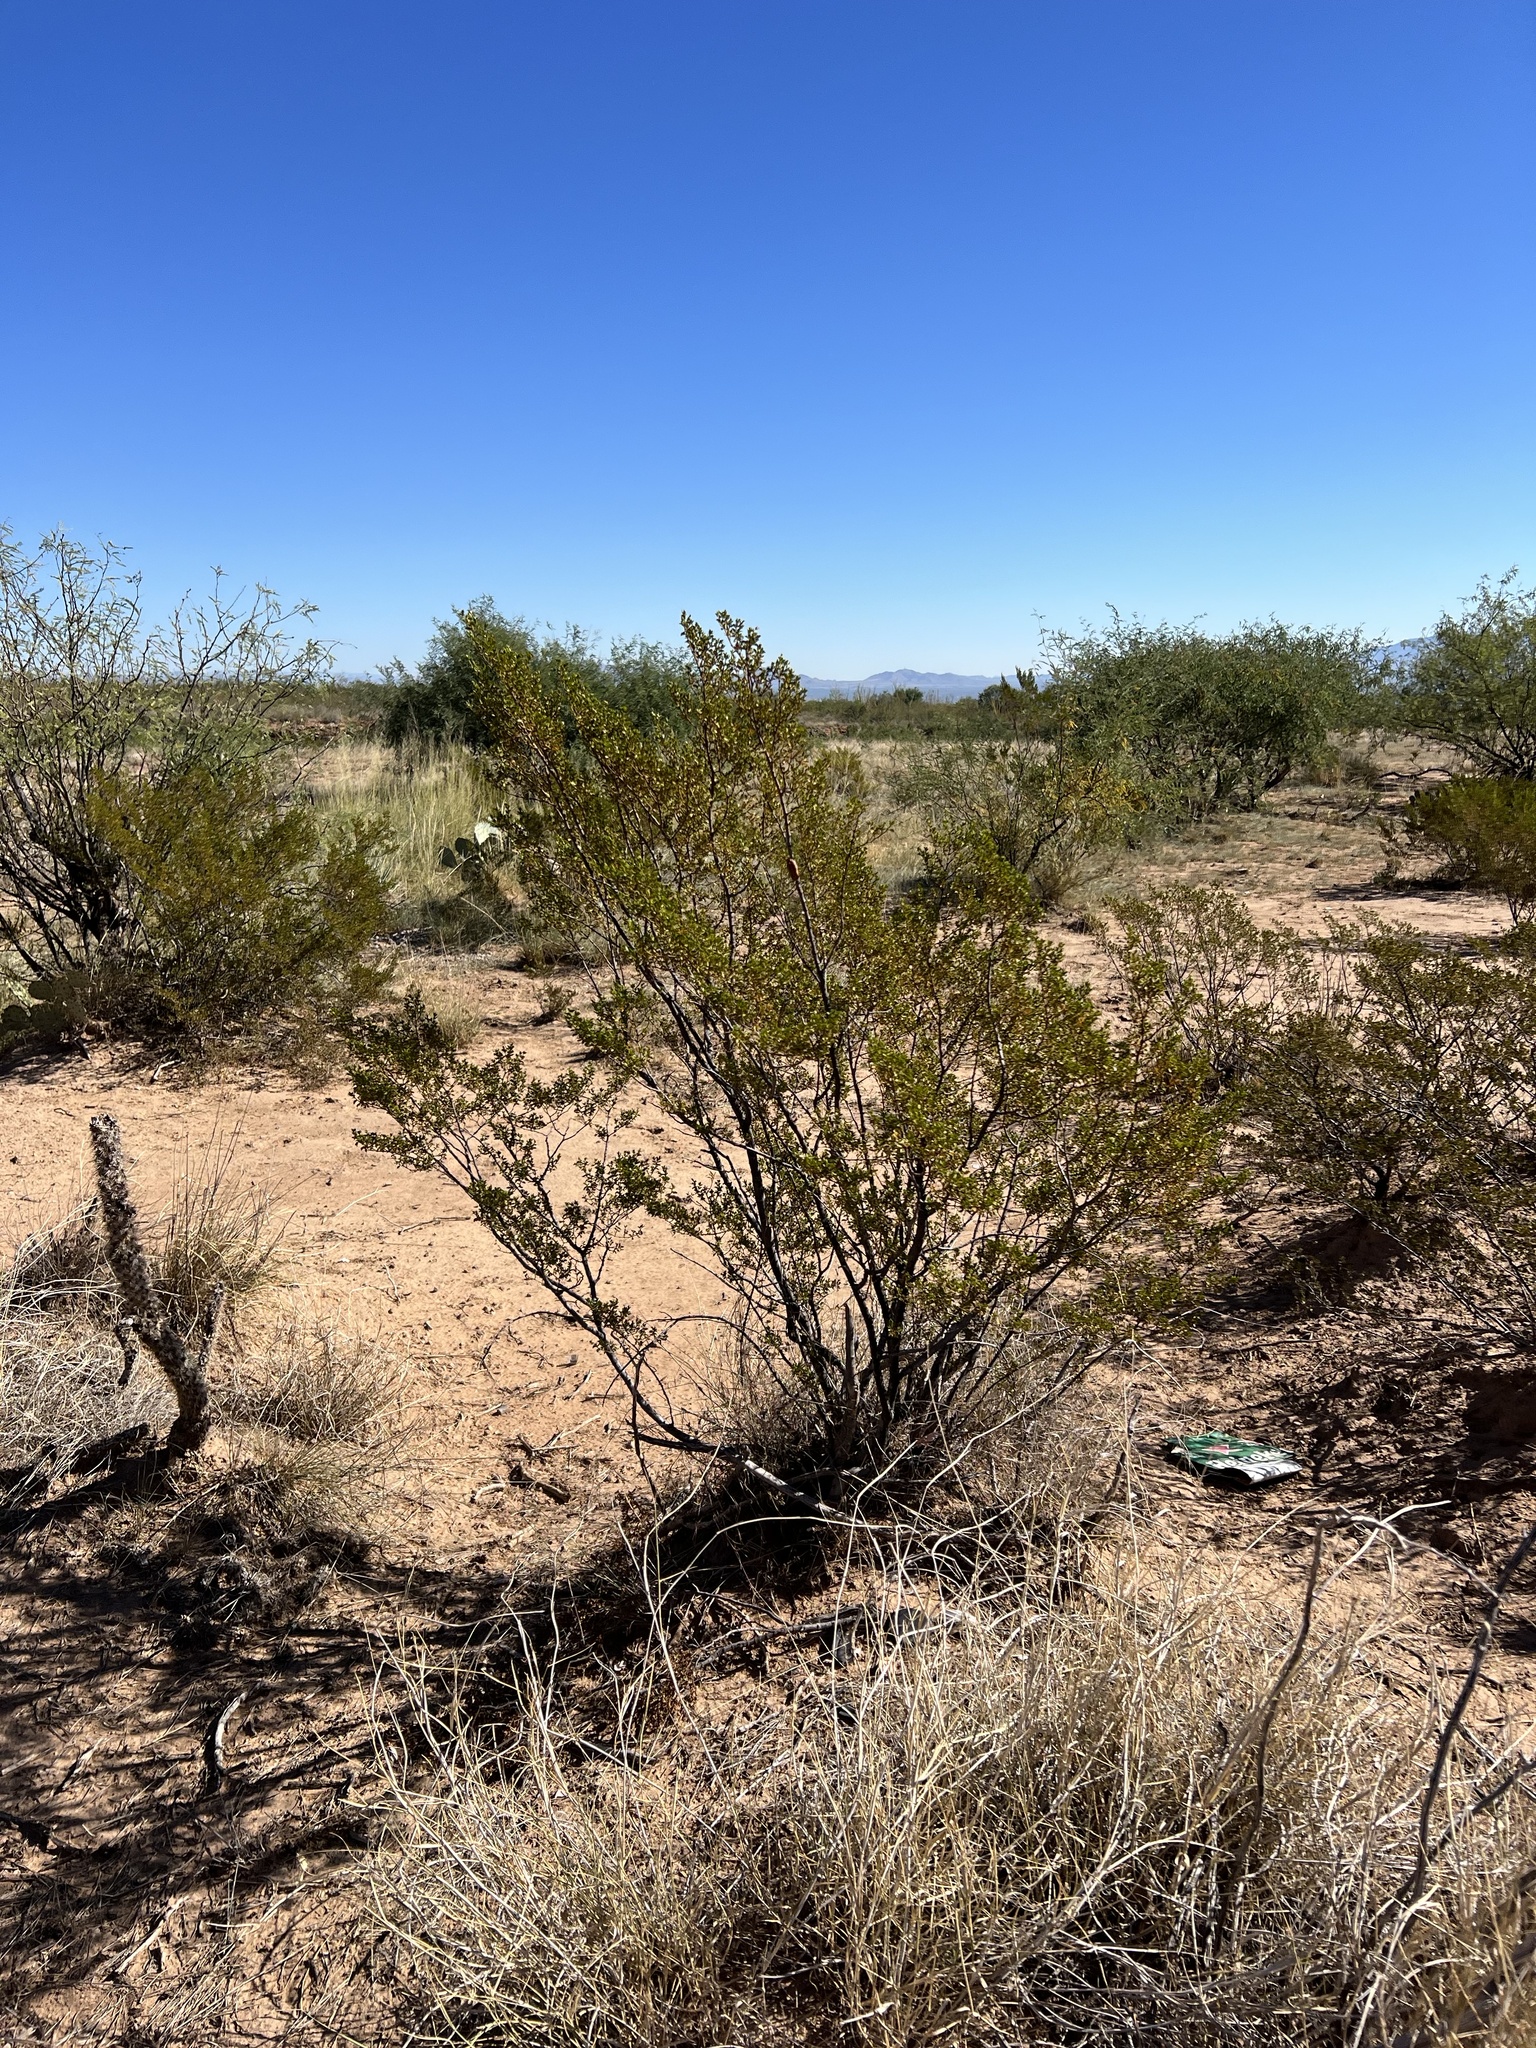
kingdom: Plantae
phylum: Tracheophyta
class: Magnoliopsida
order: Zygophyllales
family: Zygophyllaceae
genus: Larrea
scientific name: Larrea tridentata
